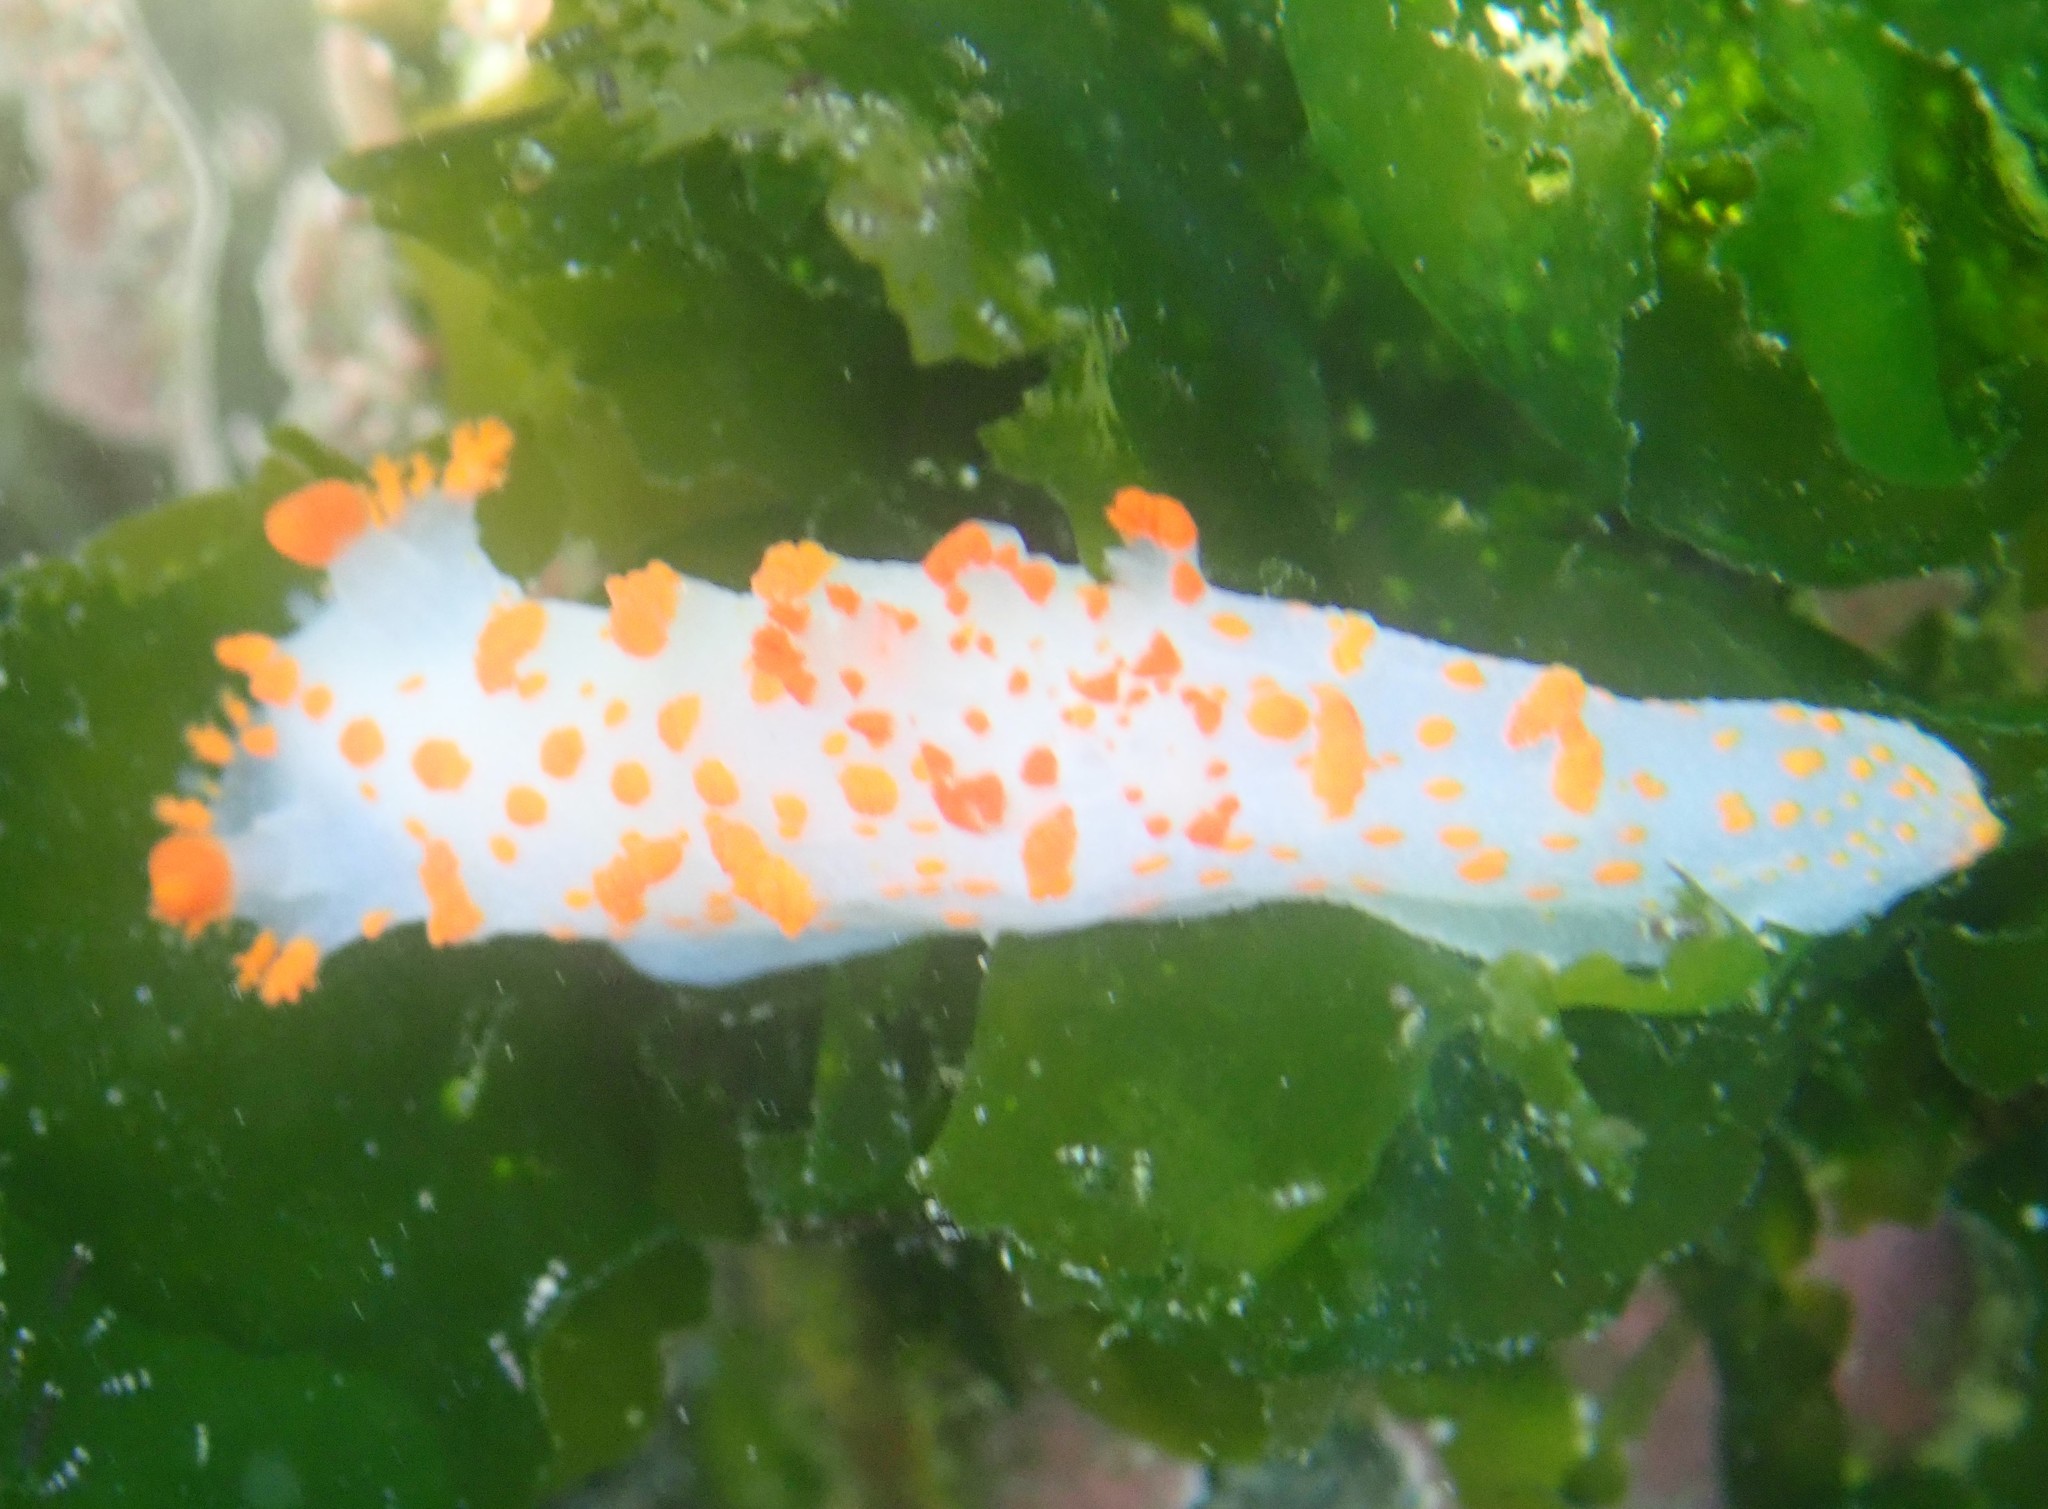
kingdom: Animalia
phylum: Mollusca
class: Gastropoda
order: Nudibranchia
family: Polyceridae
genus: Triopha
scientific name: Triopha catalinae
